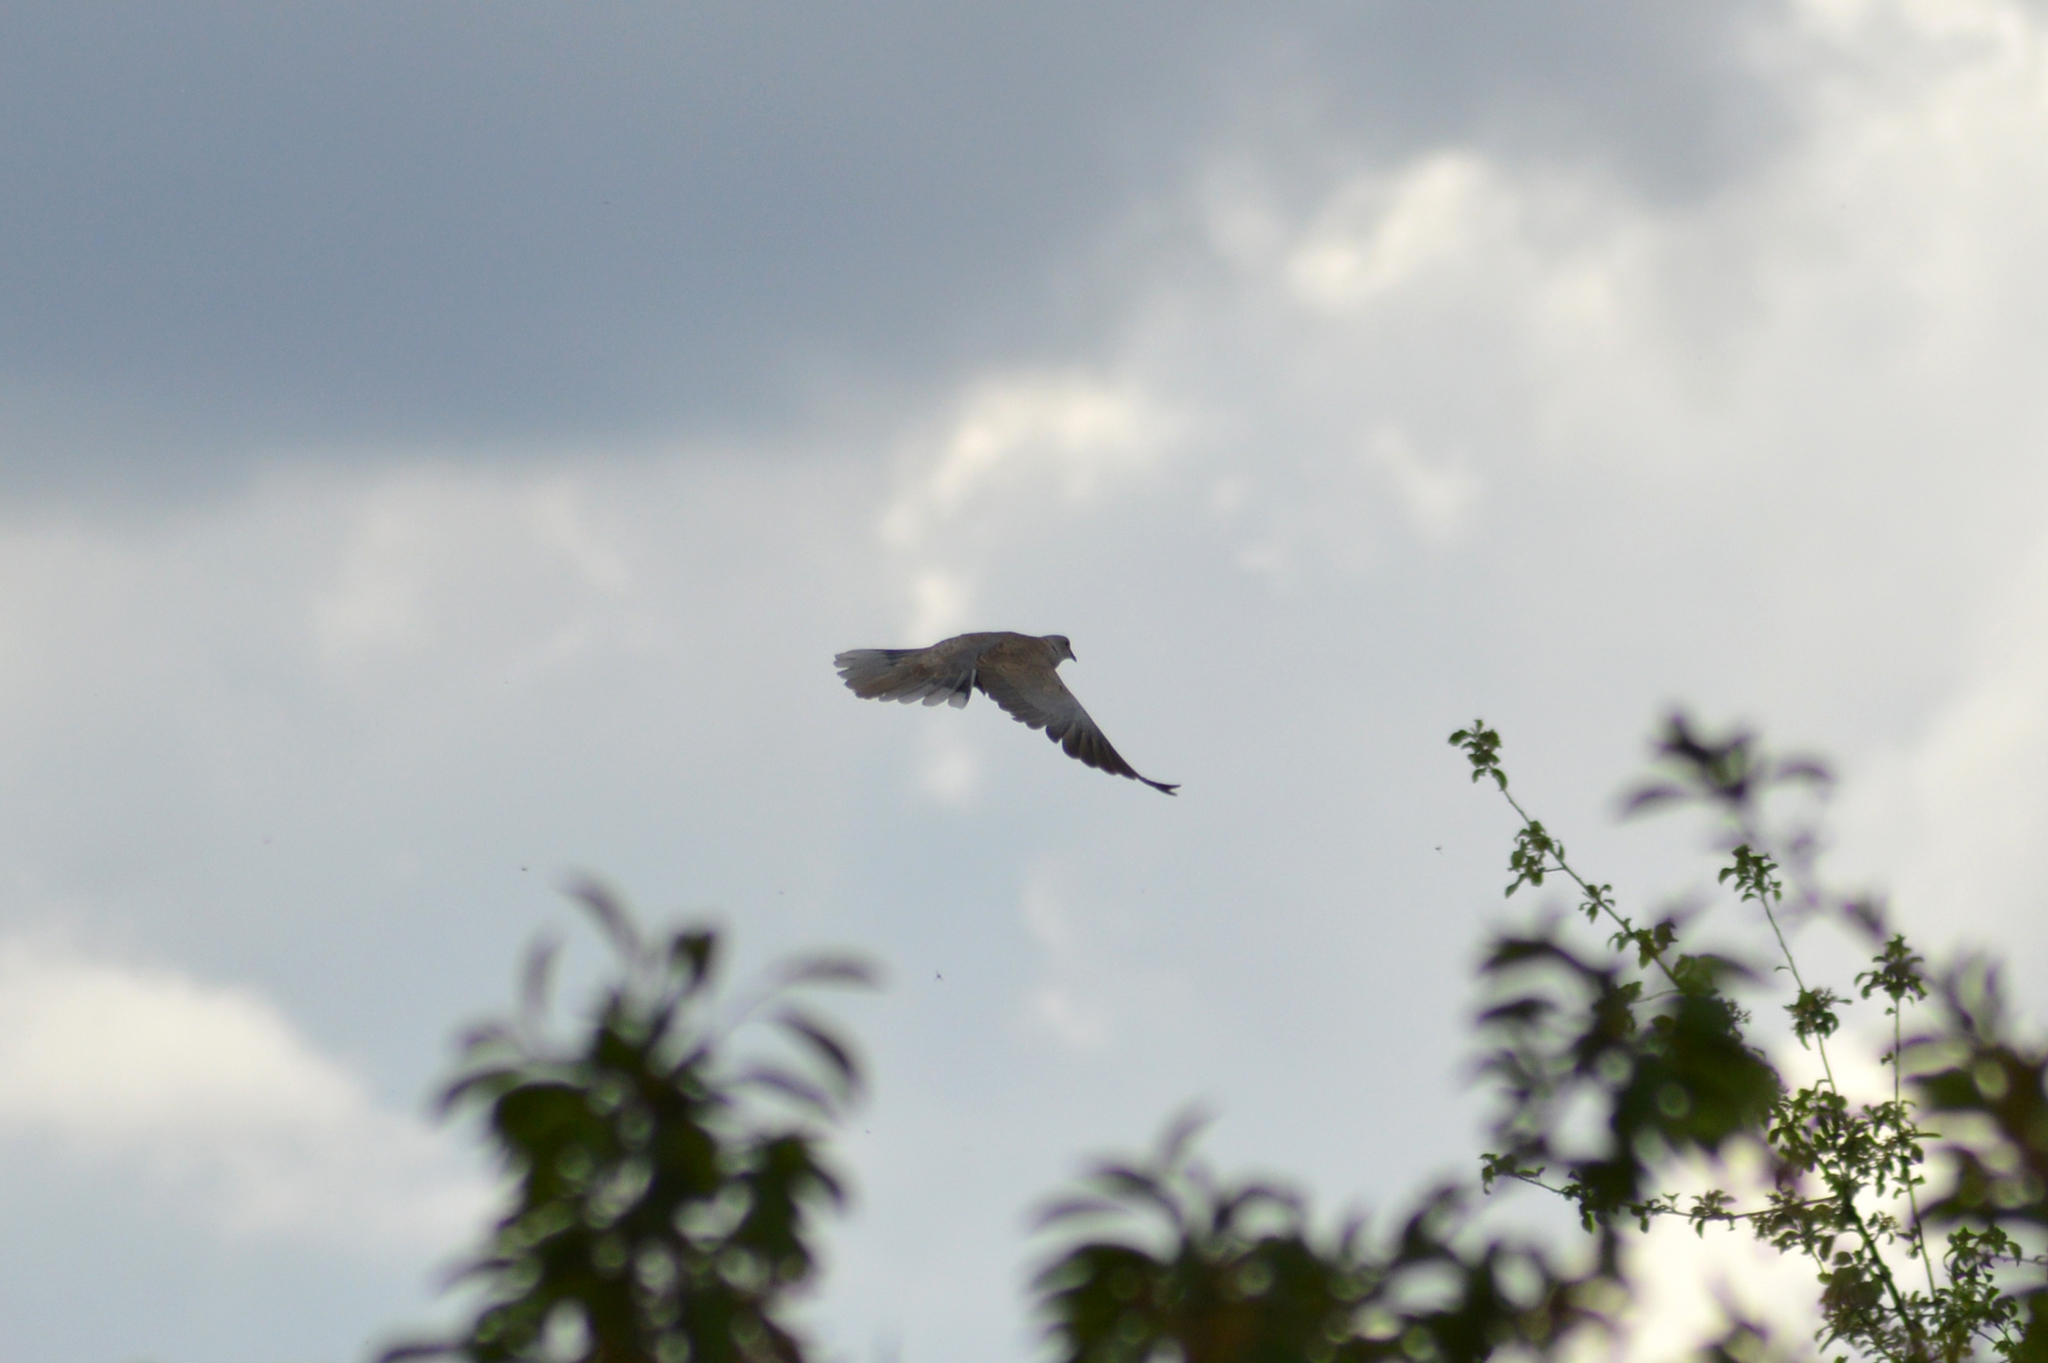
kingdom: Animalia
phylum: Chordata
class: Aves
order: Columbiformes
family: Columbidae
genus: Streptopelia
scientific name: Streptopelia decaocto
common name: Eurasian collared dove
